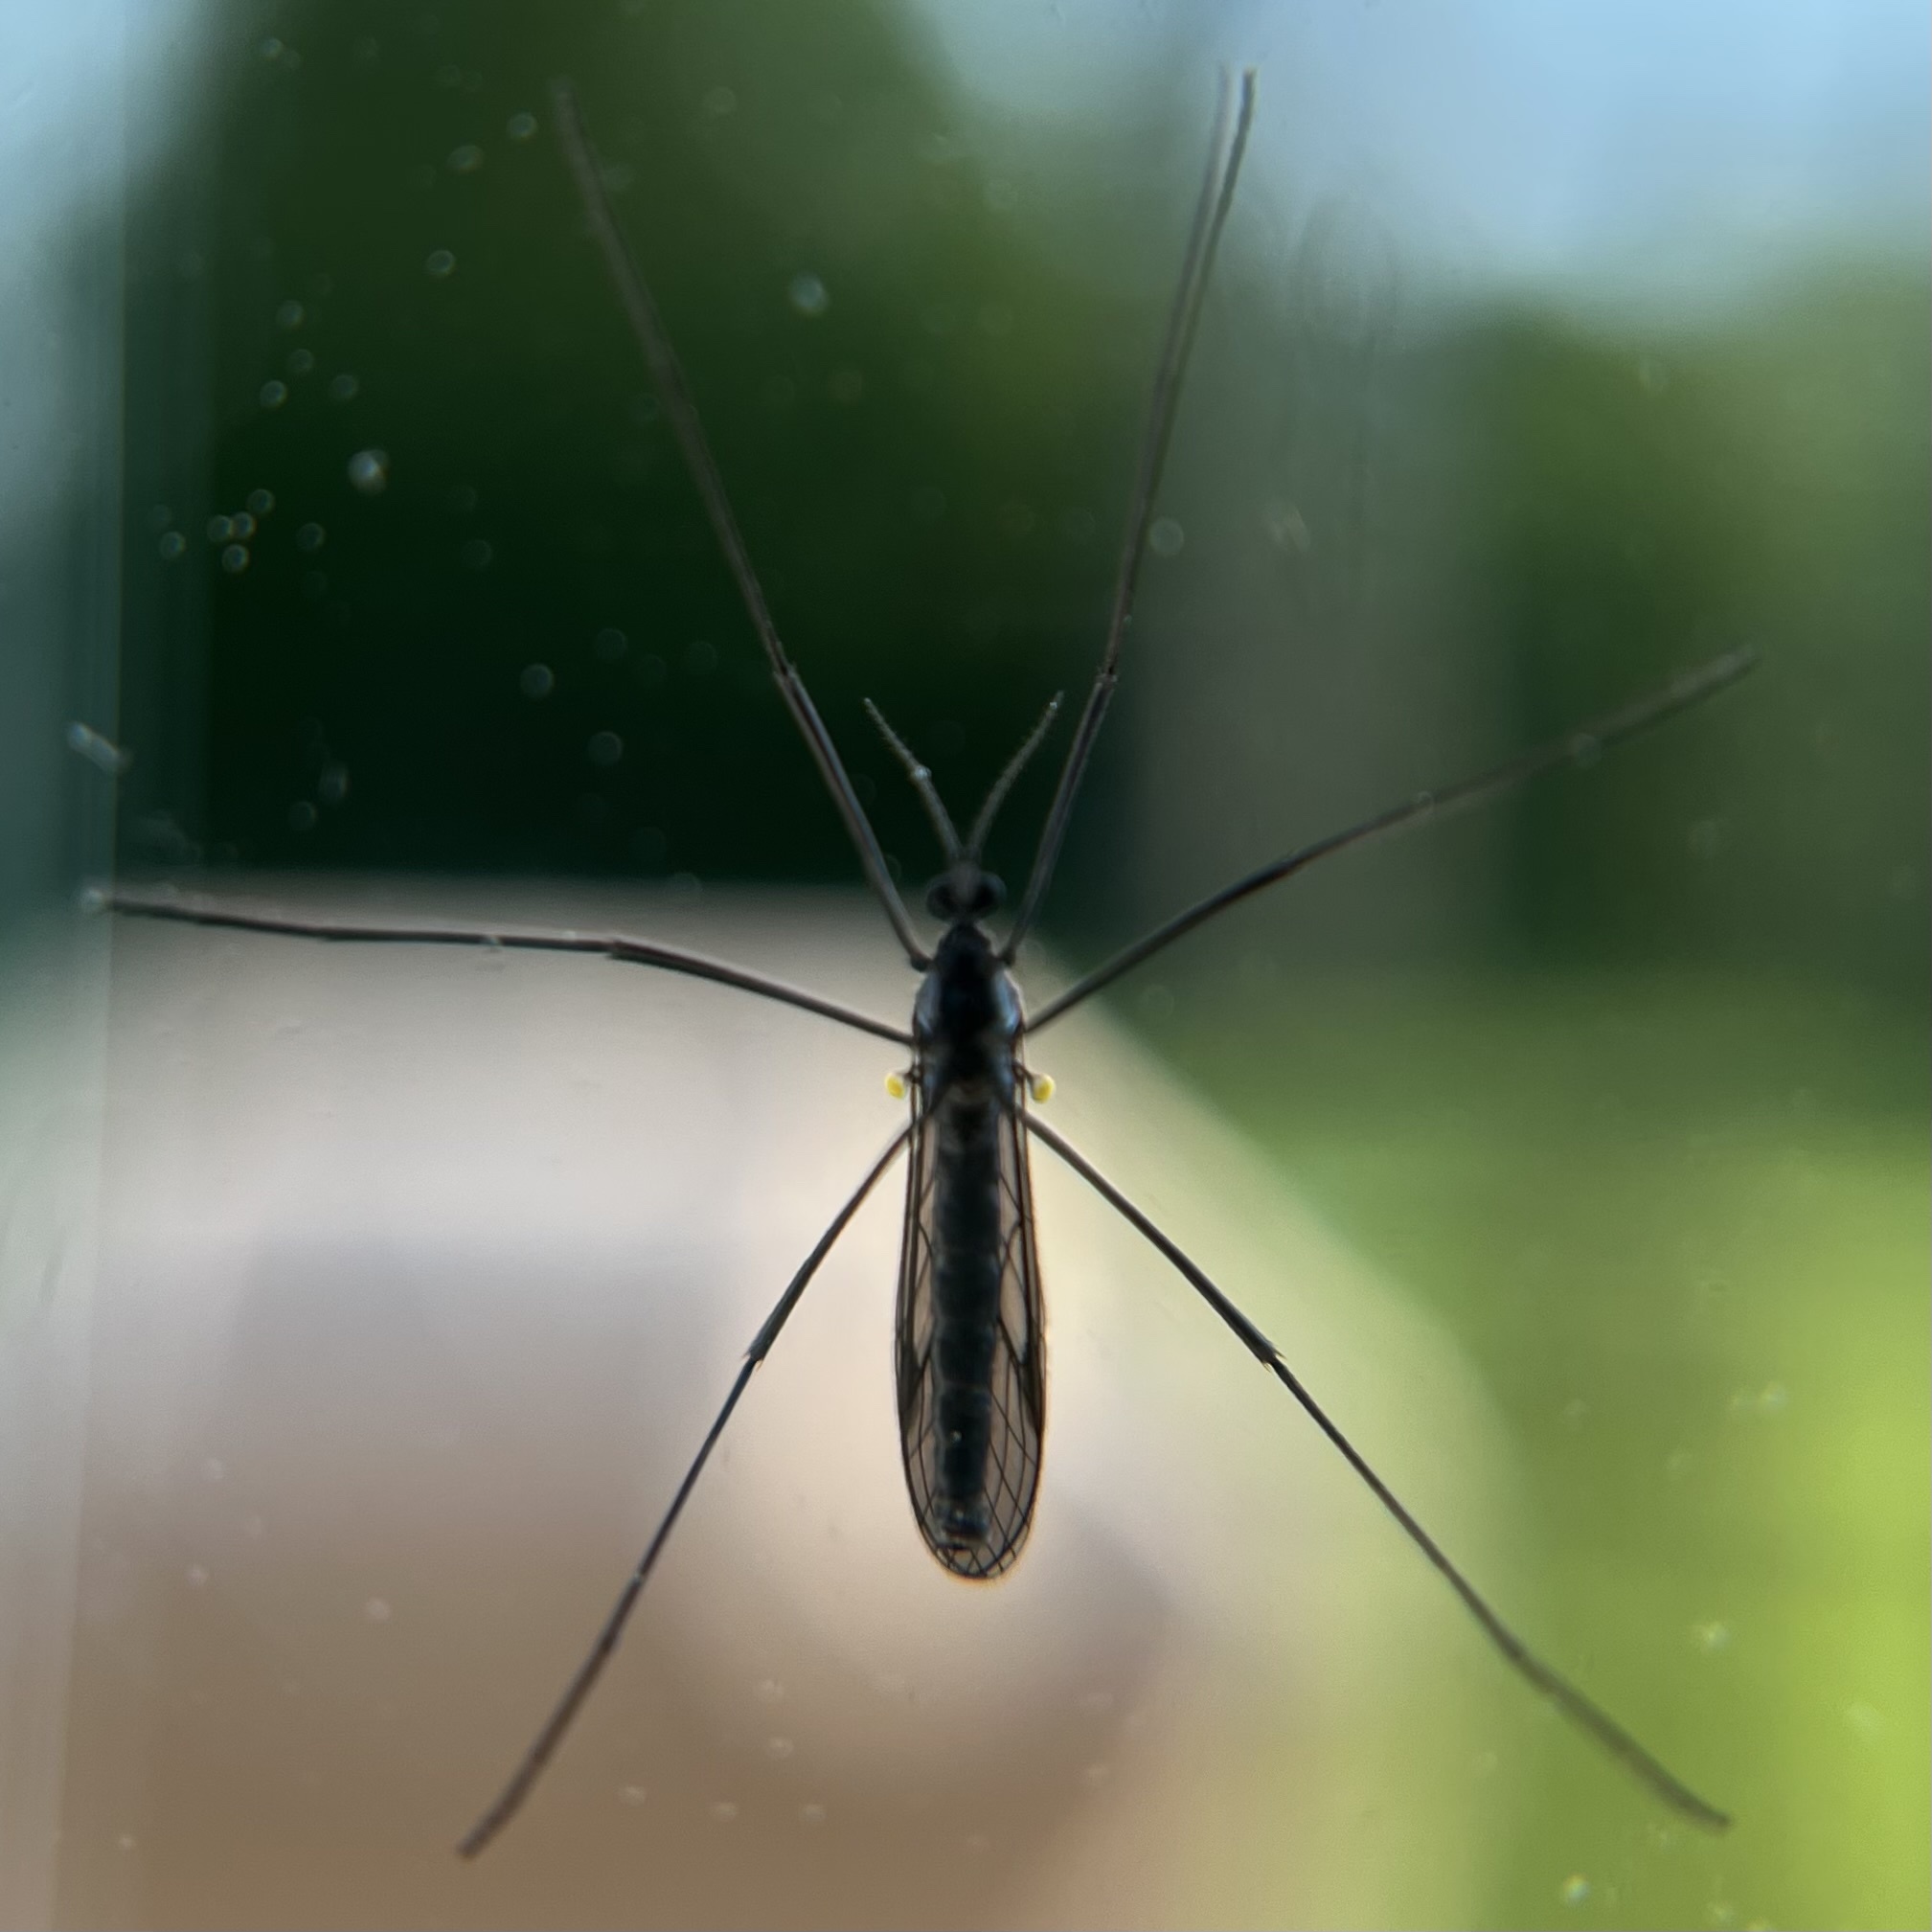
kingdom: Animalia
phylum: Arthropoda
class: Insecta
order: Diptera
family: Limoniidae
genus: Gnophomyia
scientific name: Gnophomyia tristissima
